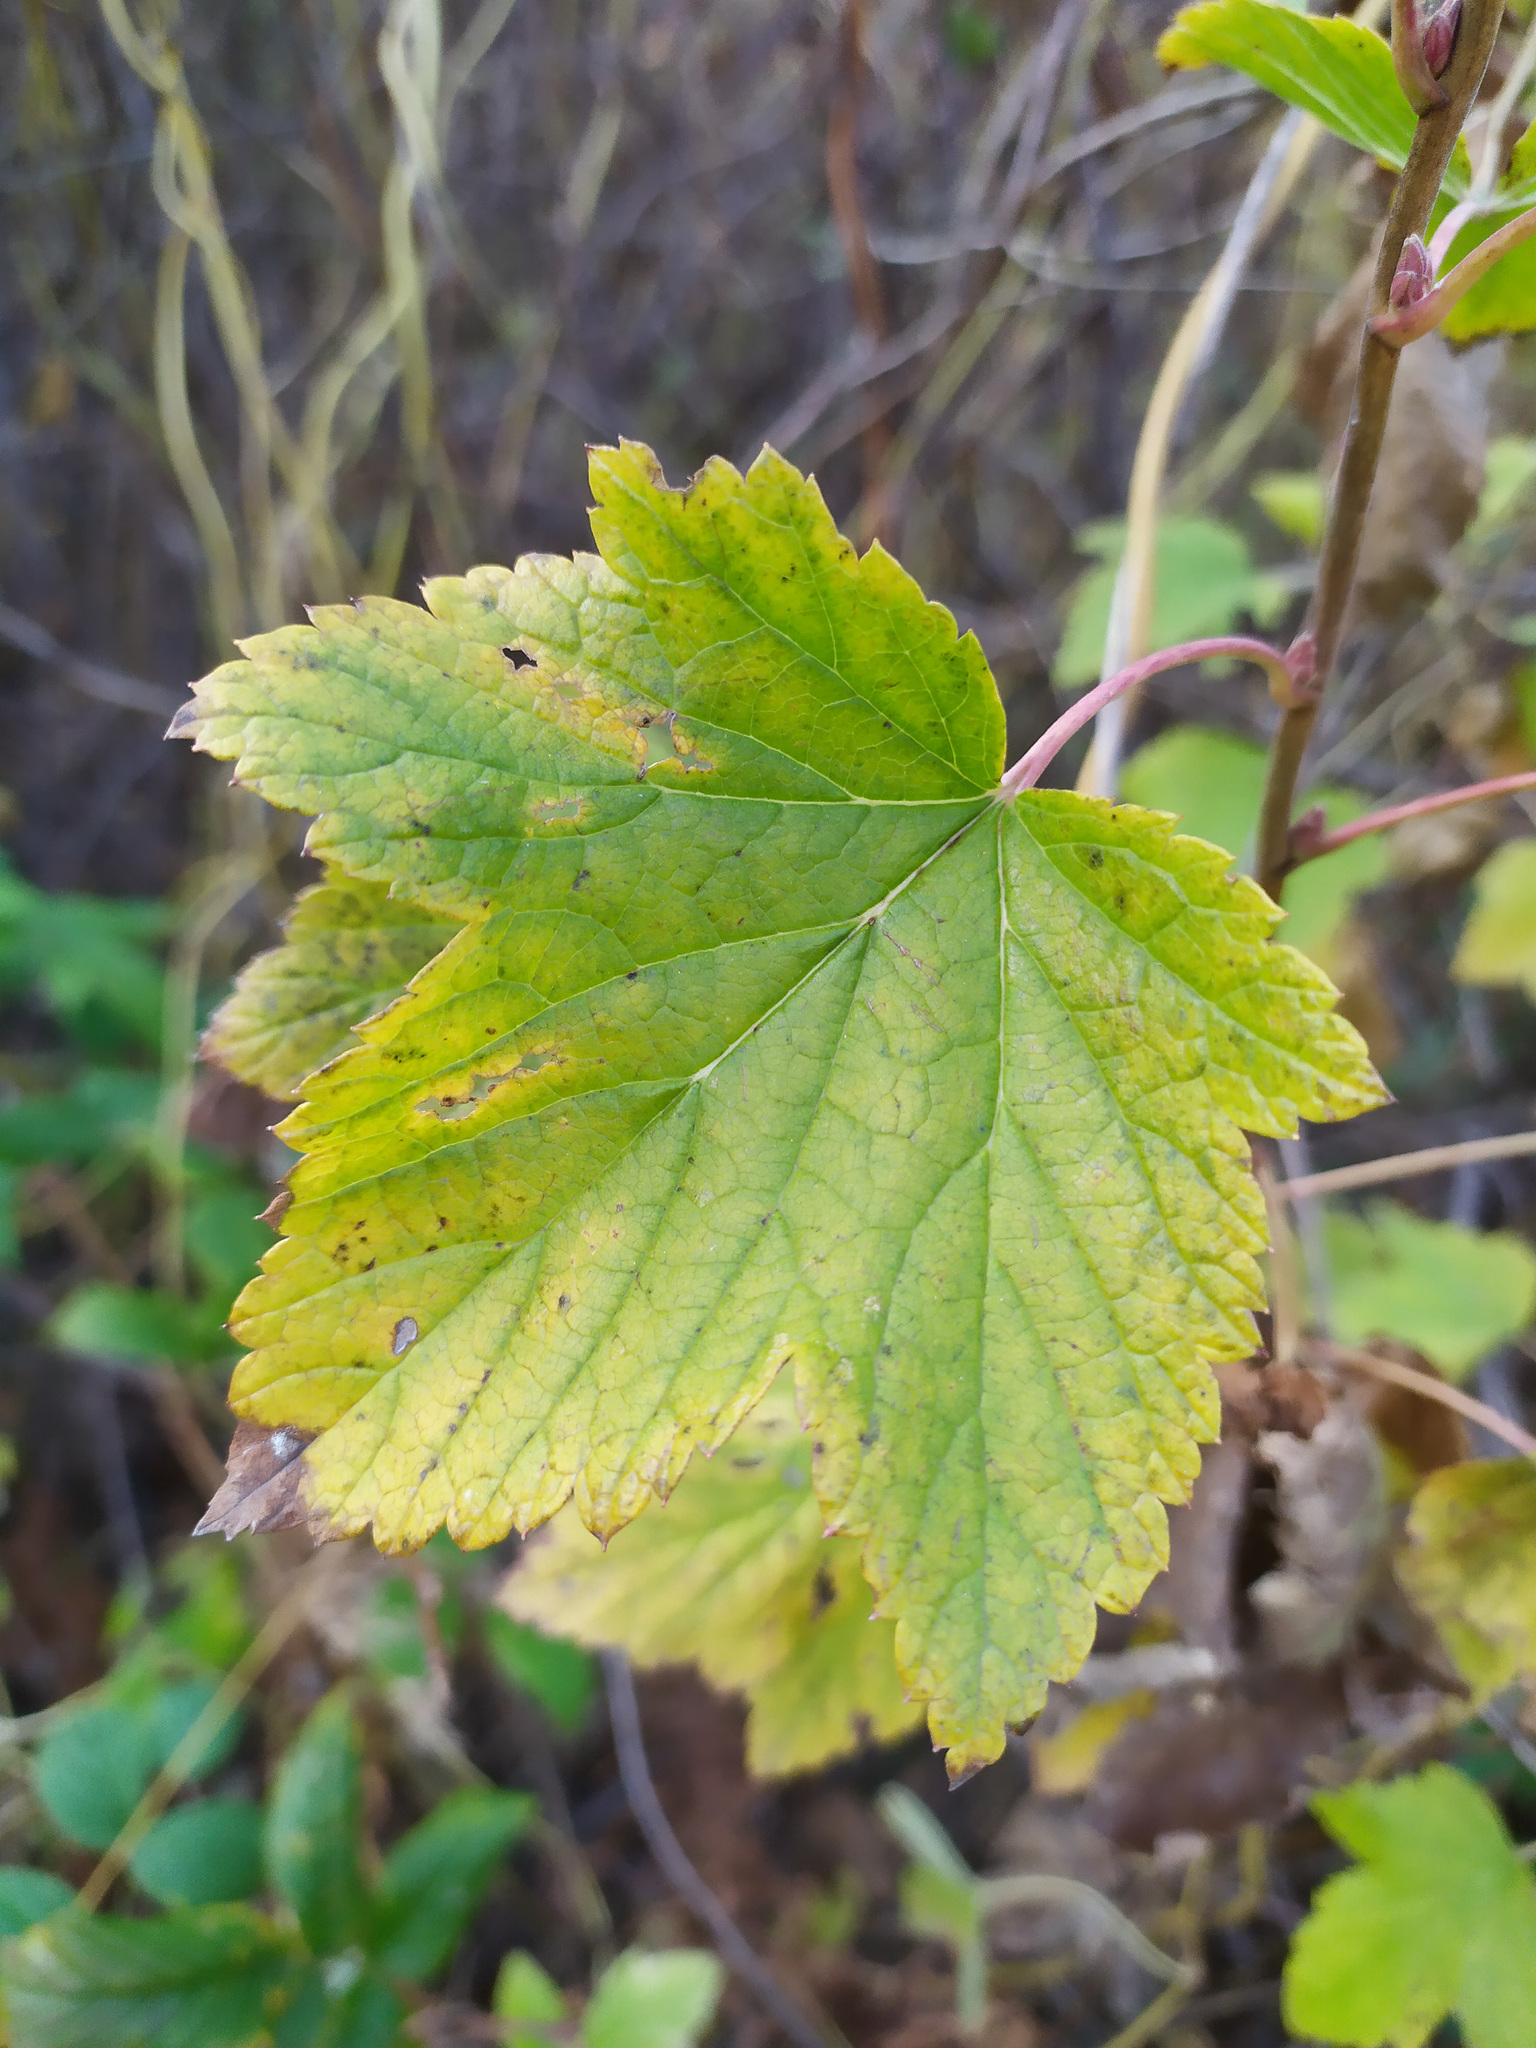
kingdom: Plantae
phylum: Tracheophyta
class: Magnoliopsida
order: Saxifragales
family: Grossulariaceae
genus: Ribes
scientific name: Ribes nigrum
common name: Black currant
